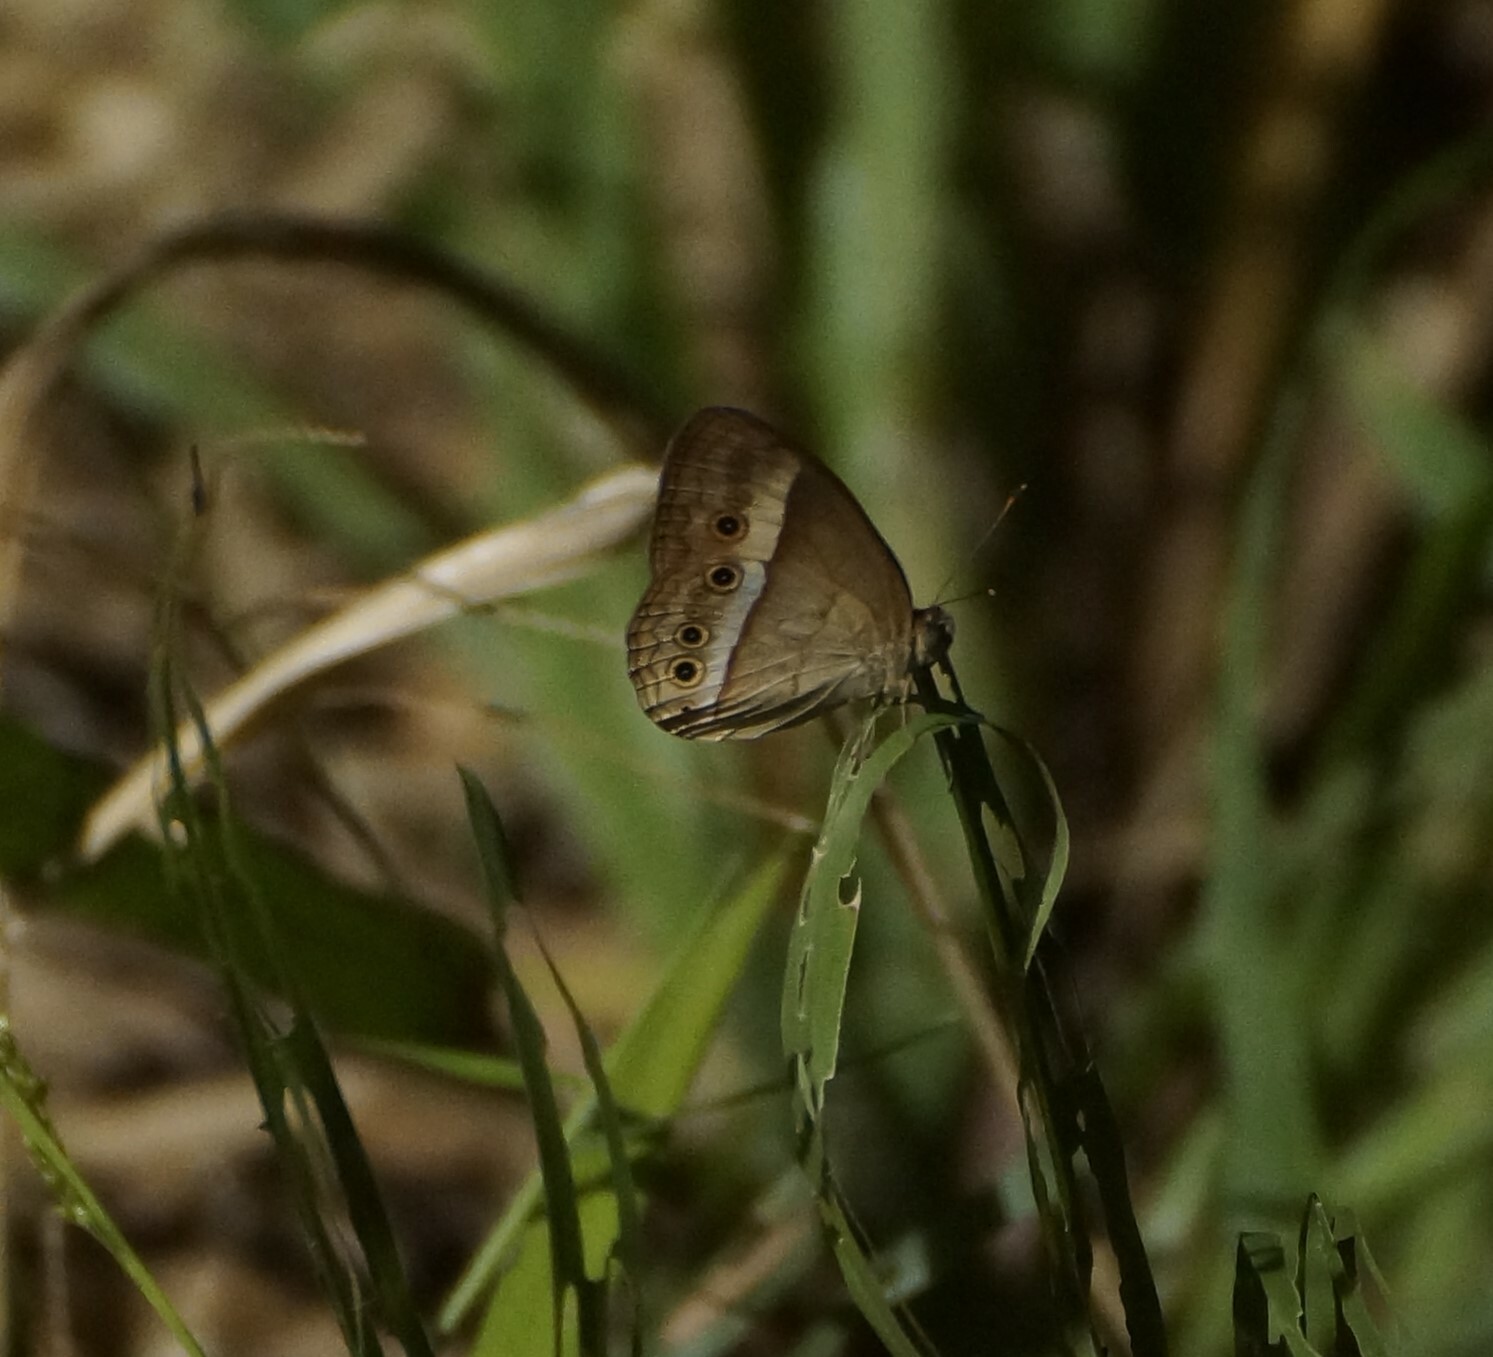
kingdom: Animalia
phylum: Arthropoda
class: Insecta
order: Lepidoptera
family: Nymphalidae
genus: Mycalesis
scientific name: Mycalesis terminus
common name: Orange bushbrown
